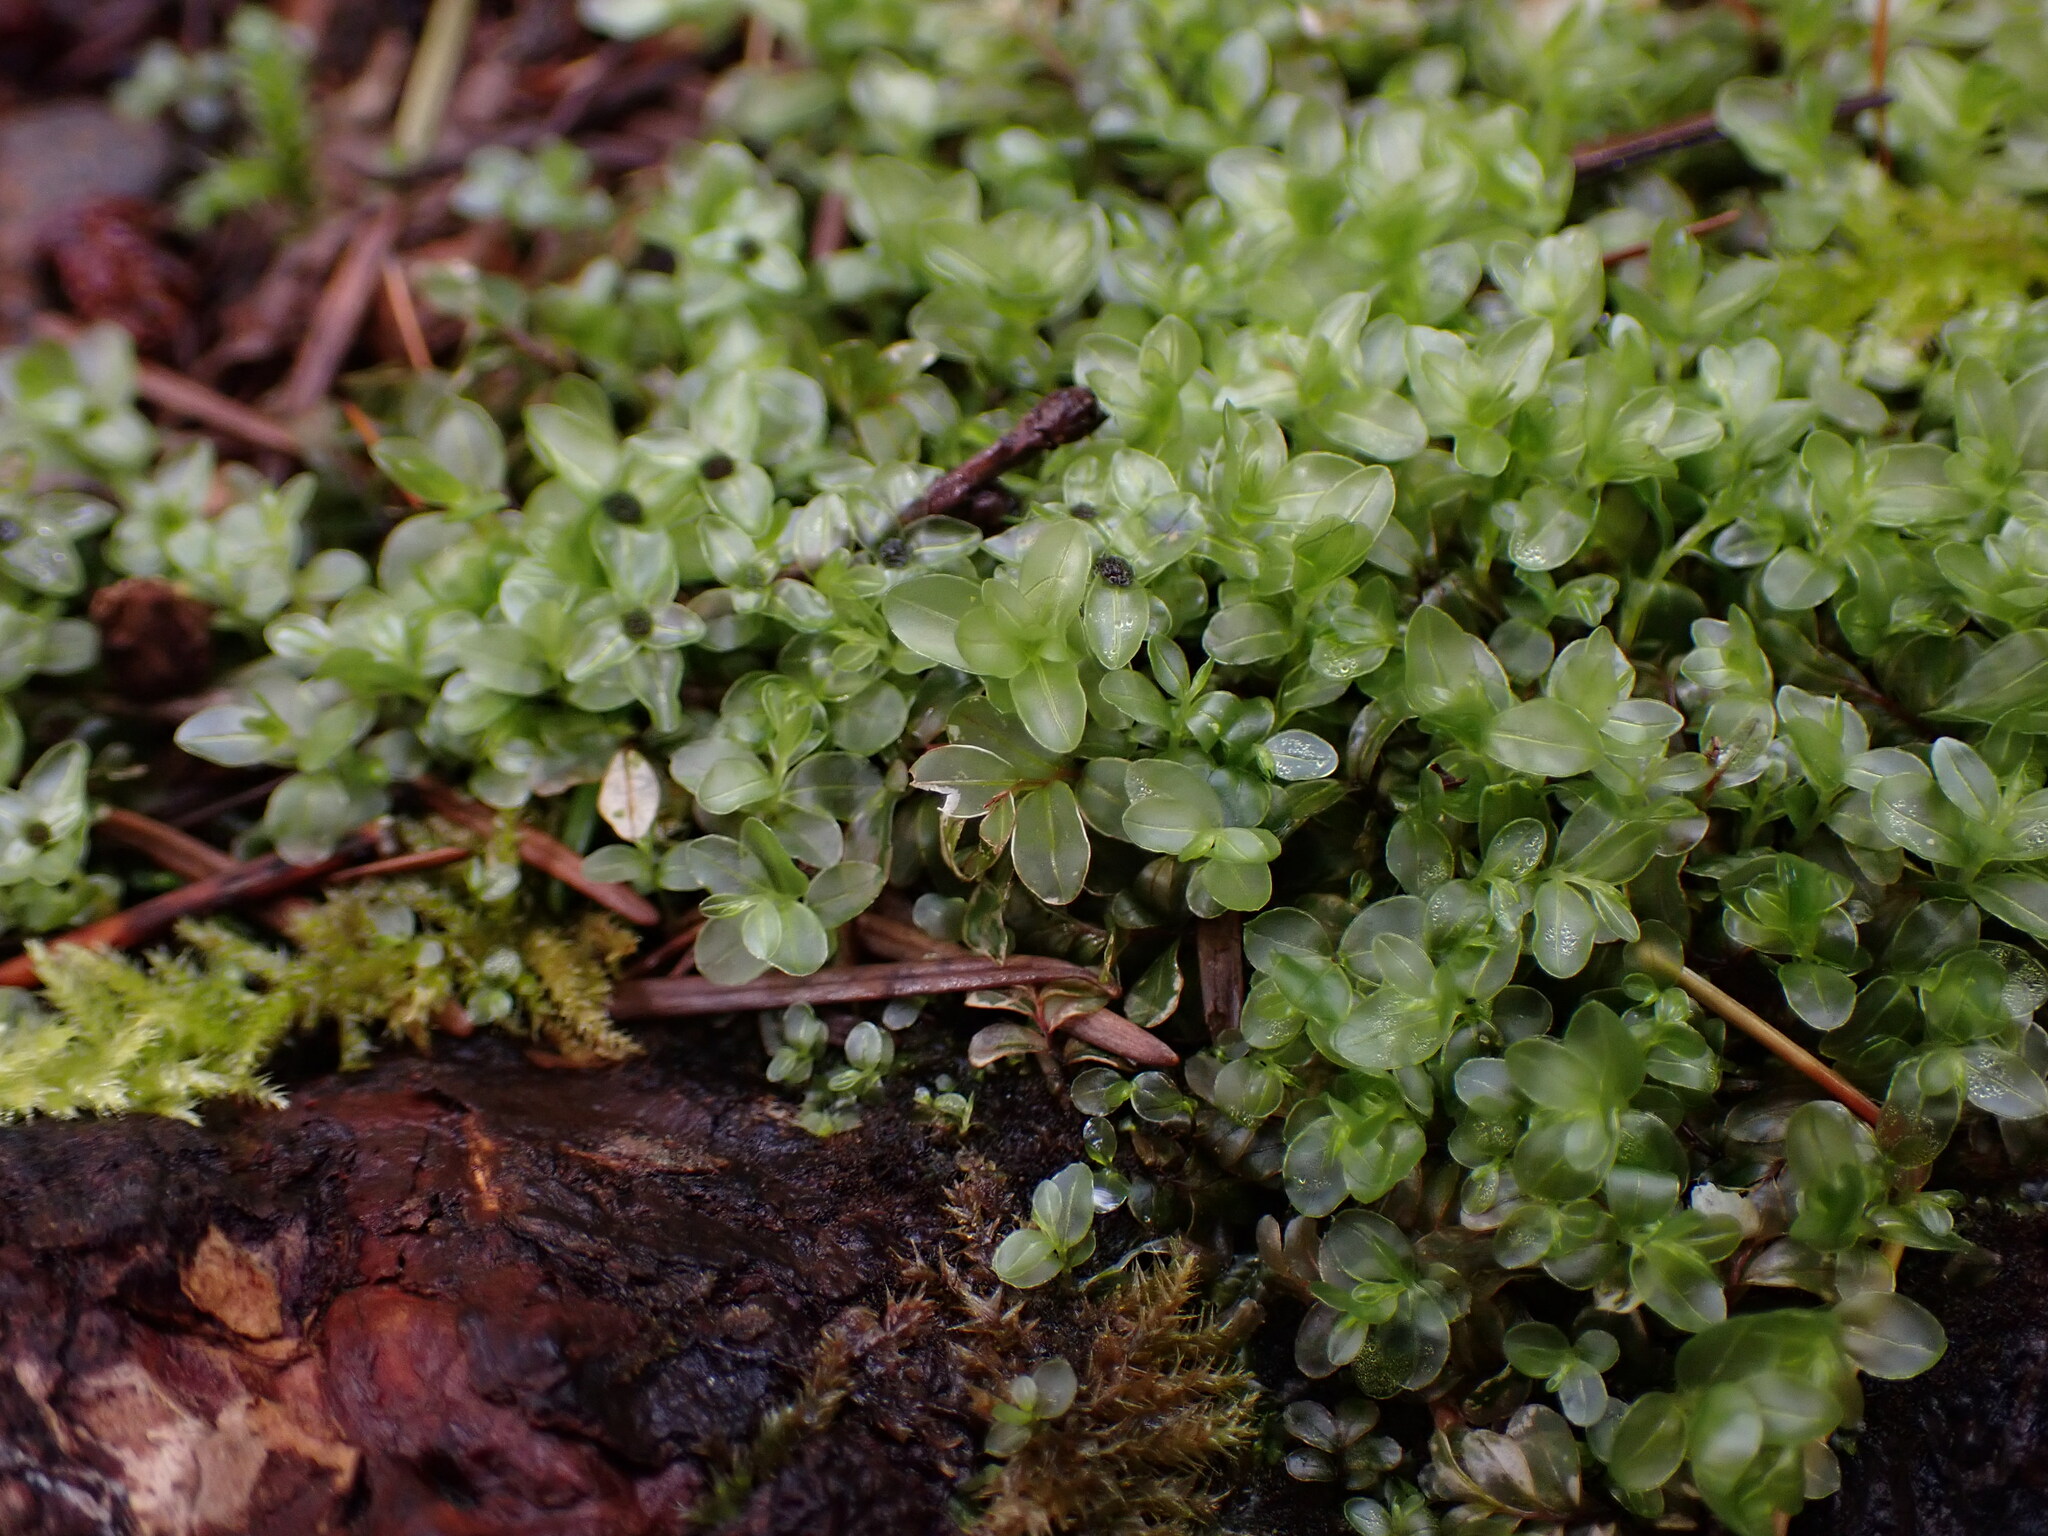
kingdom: Plantae
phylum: Bryophyta
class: Bryopsida
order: Bryales
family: Mniaceae
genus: Rhizomnium
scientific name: Rhizomnium glabrescens
